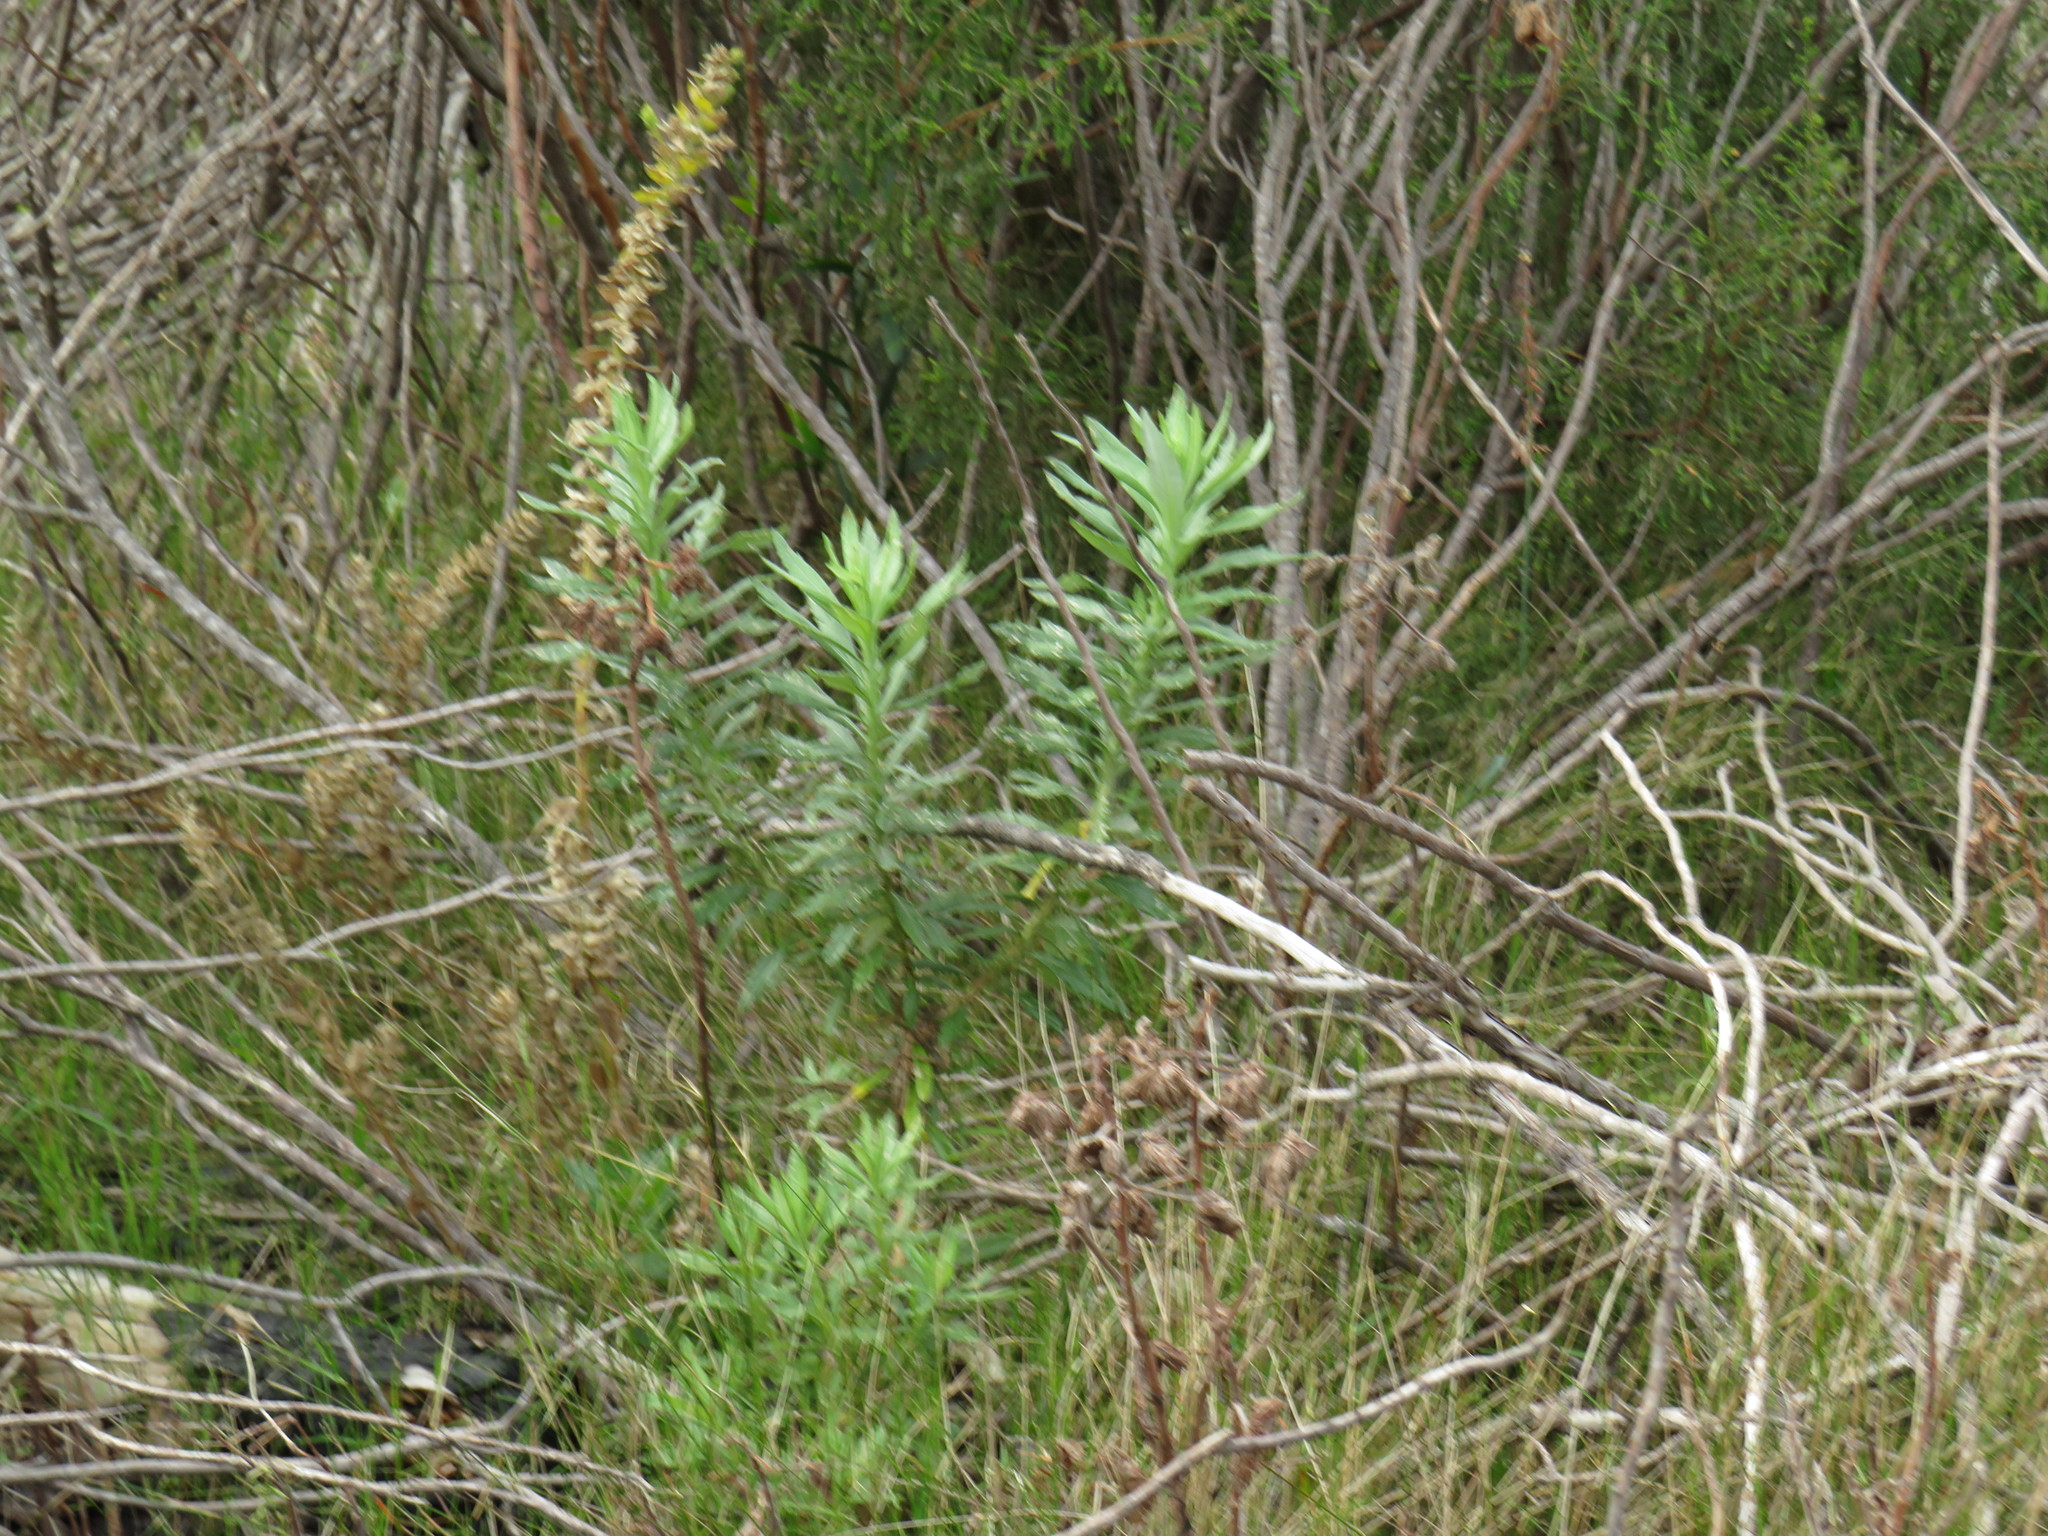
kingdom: Plantae
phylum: Tracheophyta
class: Magnoliopsida
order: Asterales
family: Asteraceae
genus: Senecio
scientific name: Senecio pterophorus
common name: Shoddy ragwort
